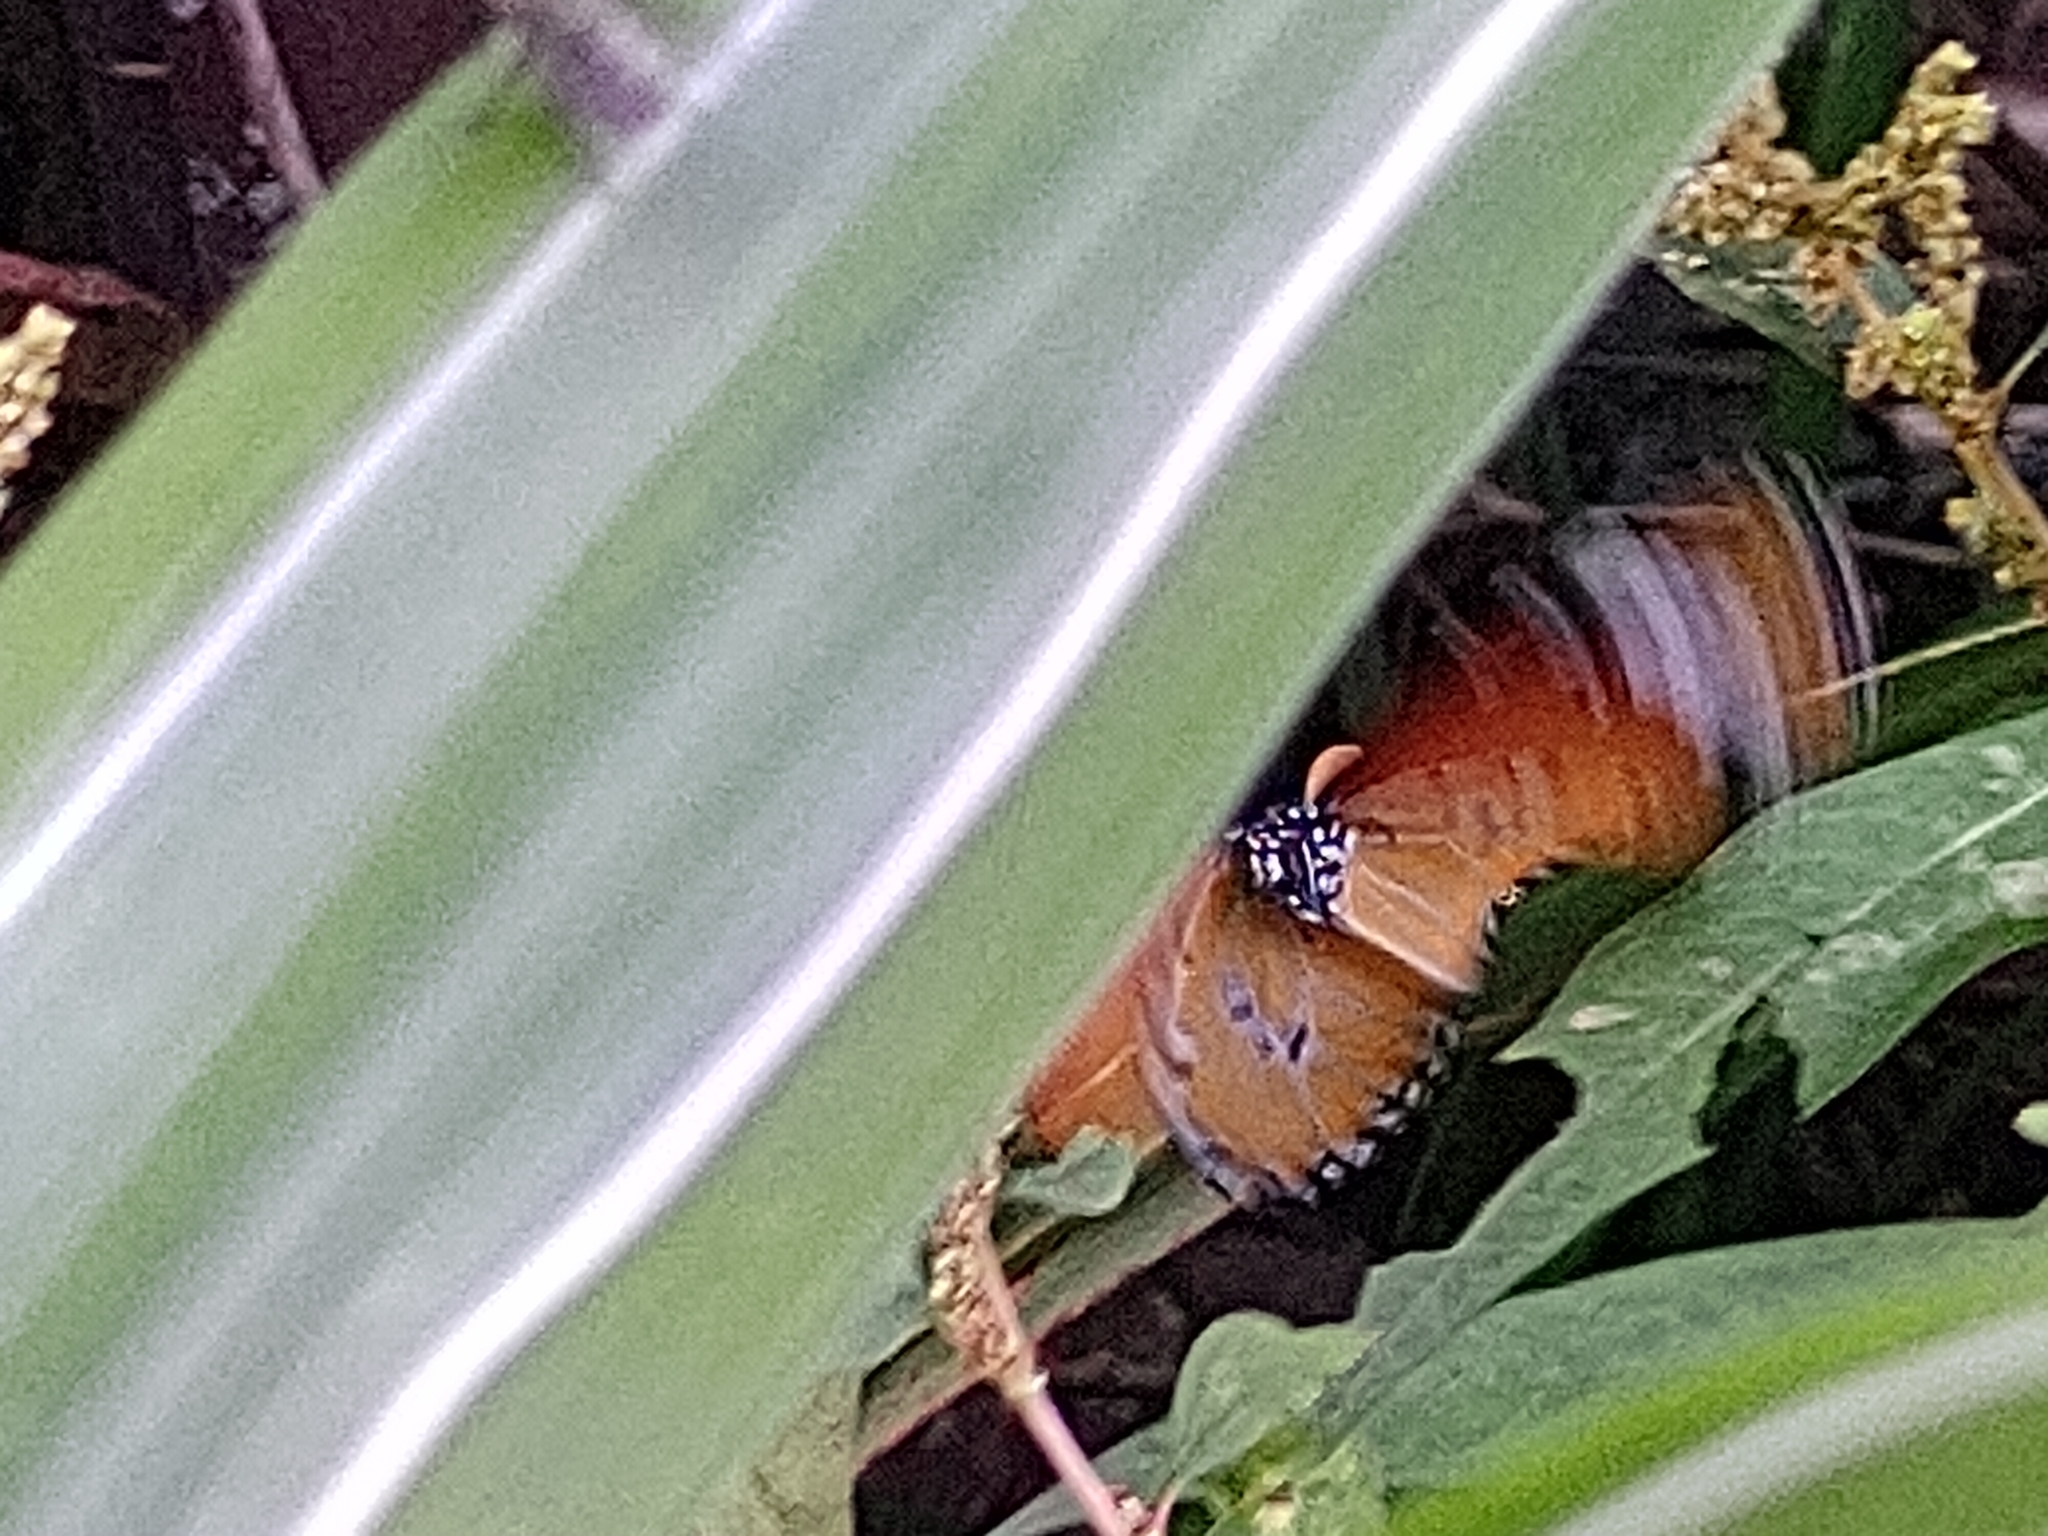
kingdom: Animalia
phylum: Arthropoda
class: Insecta
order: Lepidoptera
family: Nymphalidae
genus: Danaus
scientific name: Danaus chrysippus
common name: Plain tiger
